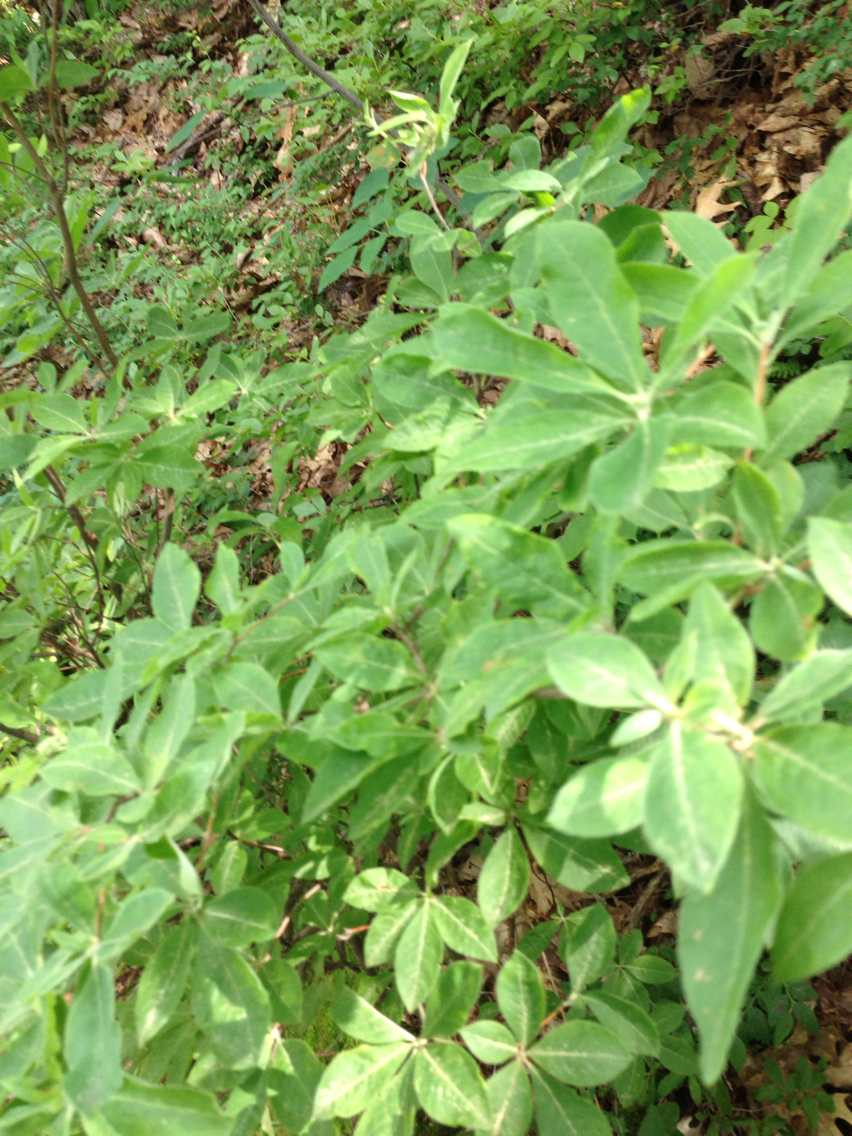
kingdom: Plantae
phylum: Tracheophyta
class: Magnoliopsida
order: Ericales
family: Ericaceae
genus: Rhododendron
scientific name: Rhododendron roseum
